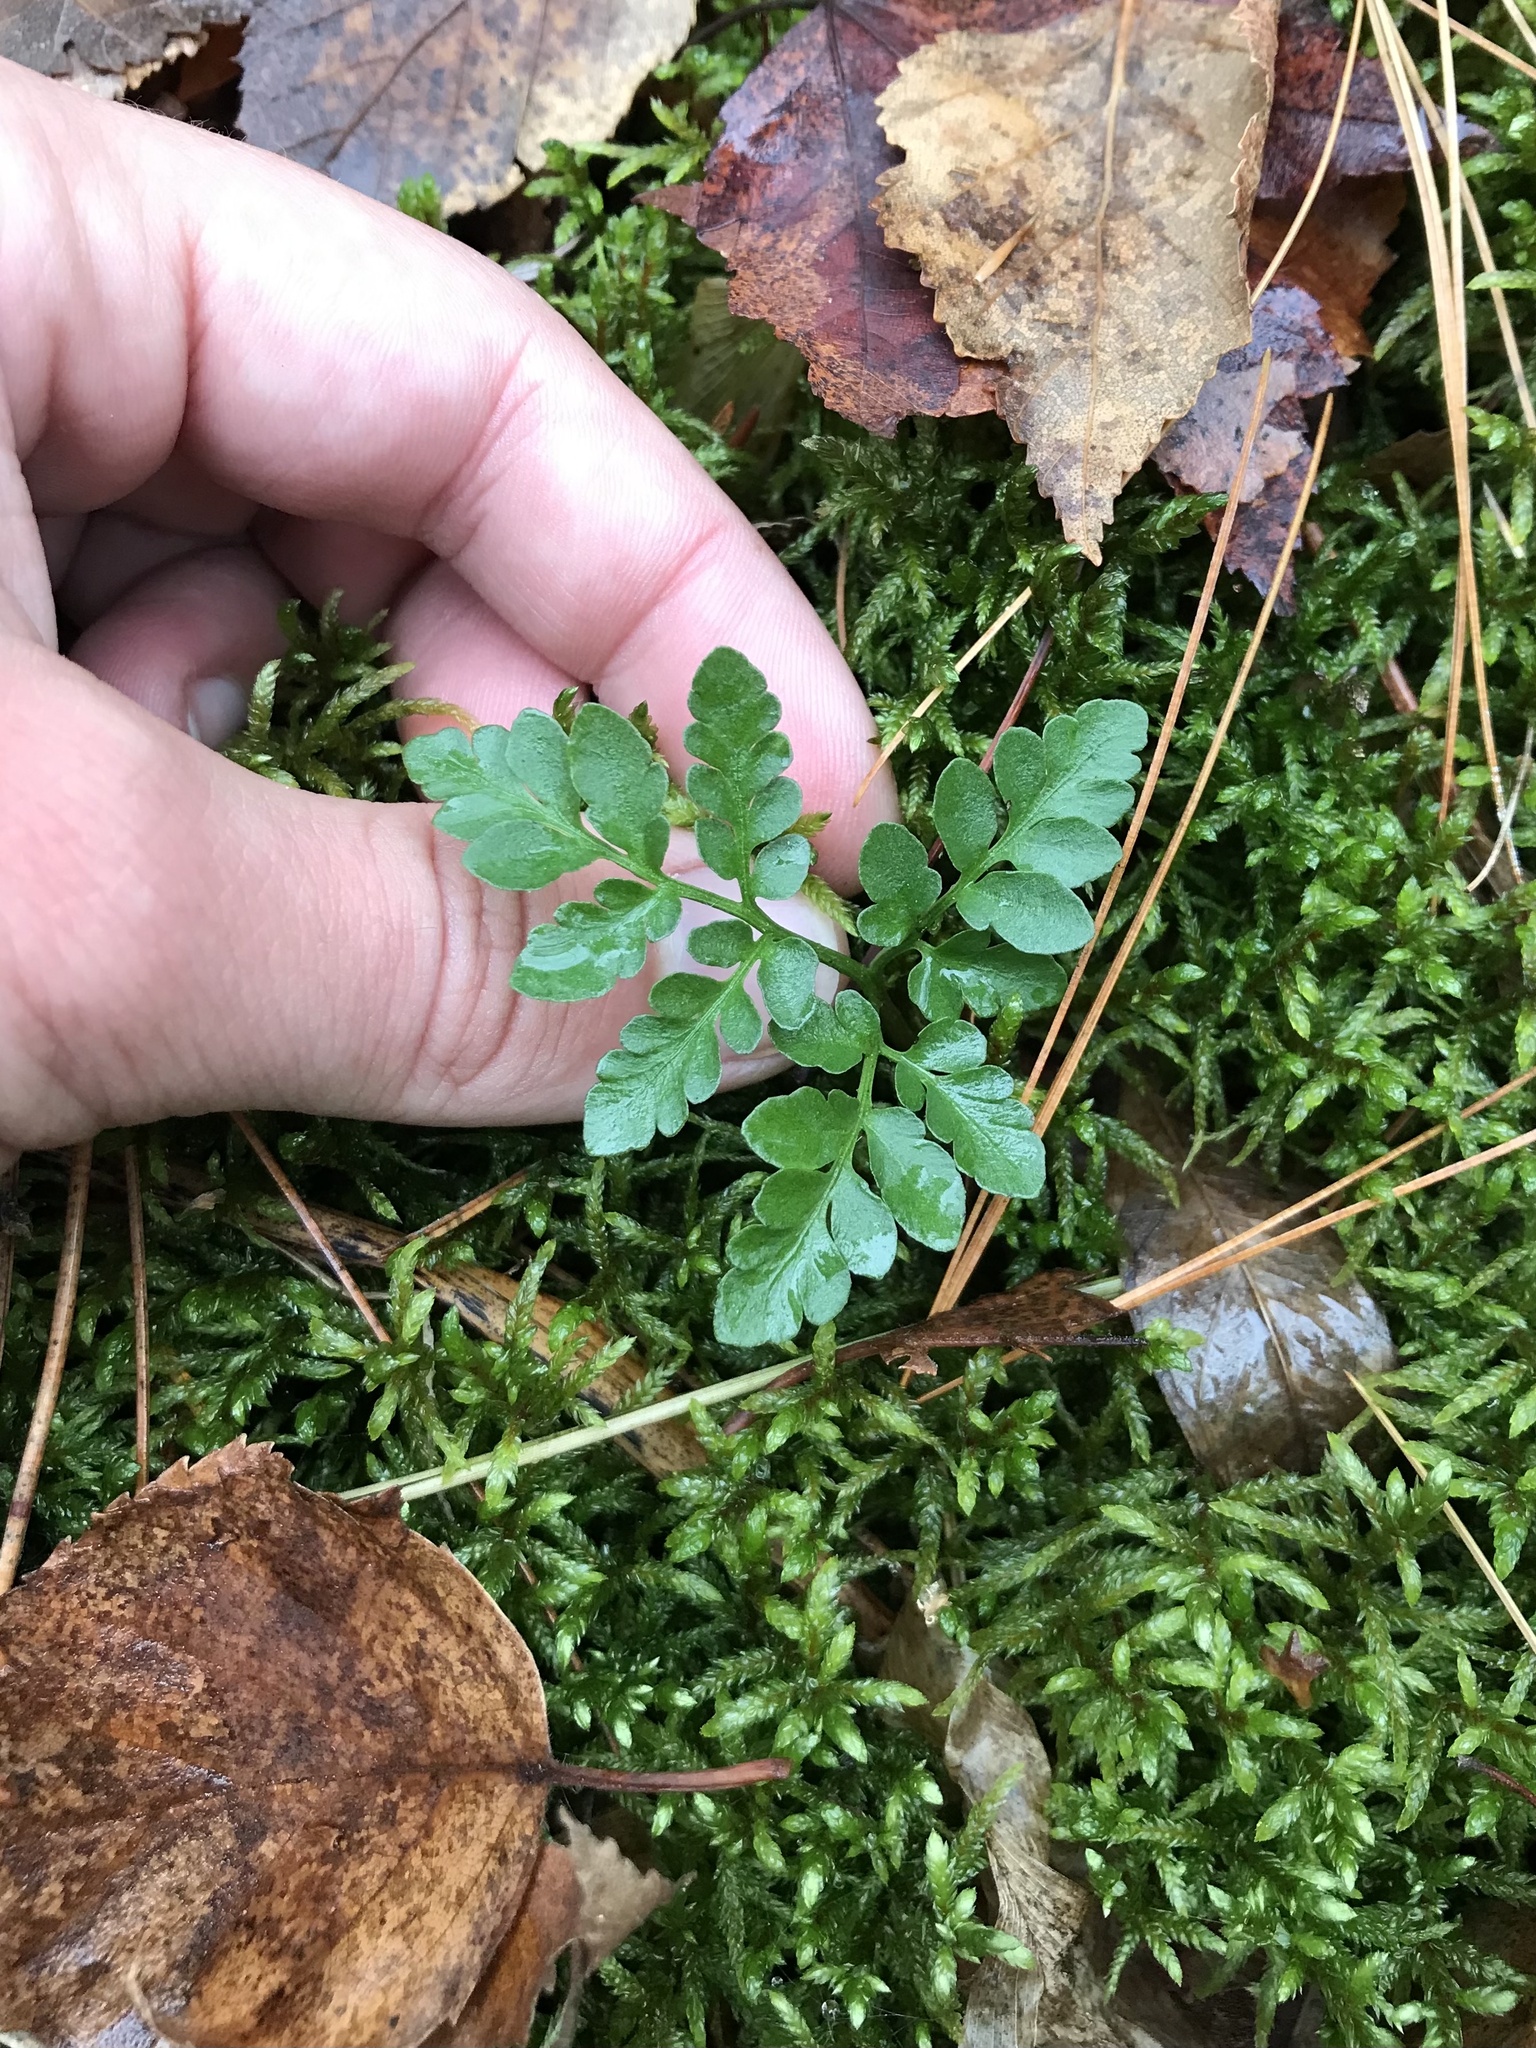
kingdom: Plantae
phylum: Tracheophyta
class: Polypodiopsida
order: Ophioglossales
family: Ophioglossaceae
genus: Sceptridium
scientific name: Sceptridium multifidum
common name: Leathery grape fern
